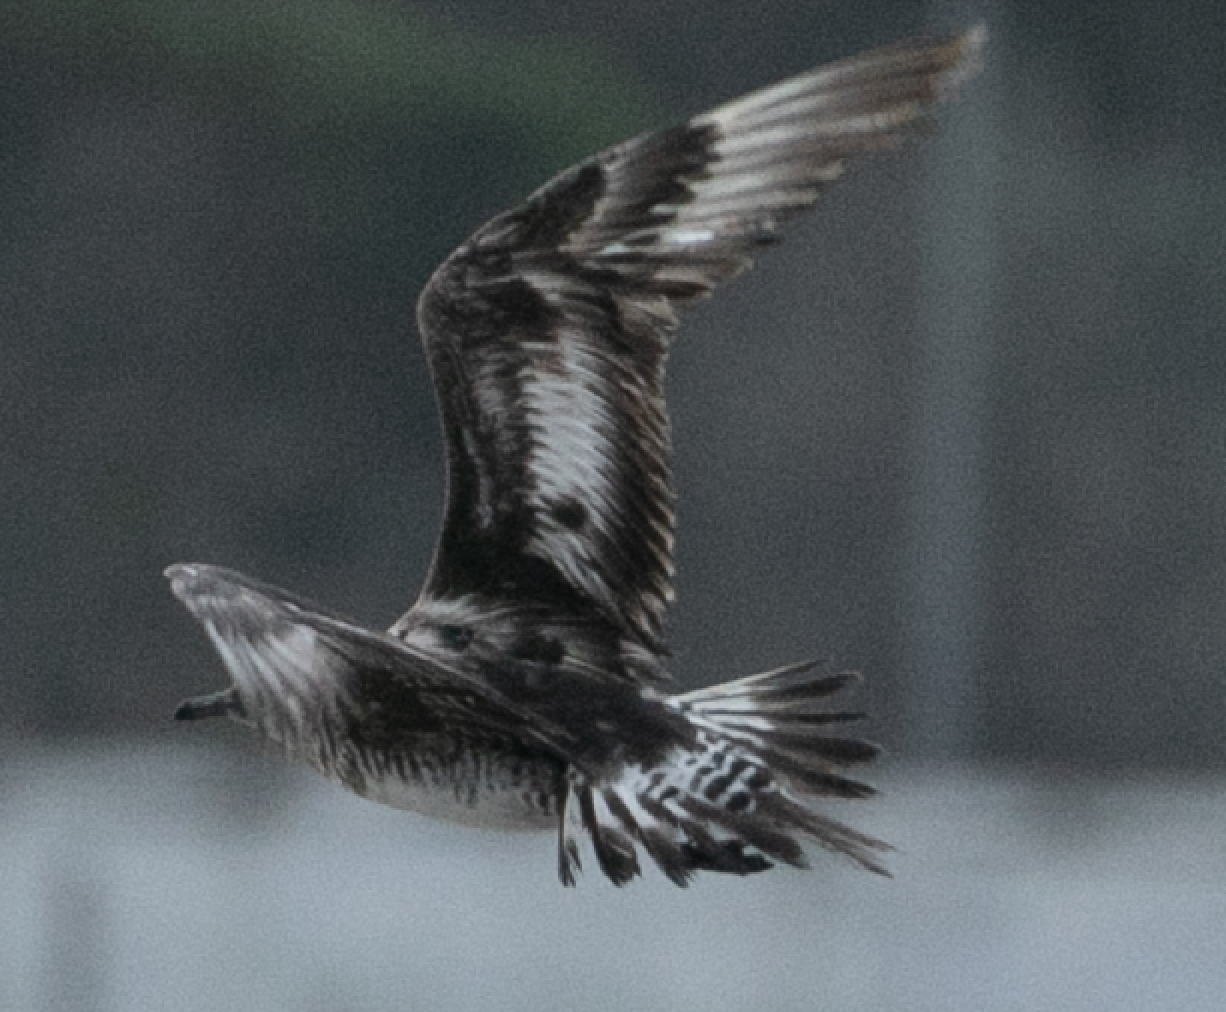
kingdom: Animalia
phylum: Chordata
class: Aves
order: Charadriiformes
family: Stercorariidae
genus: Stercorarius
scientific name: Stercorarius pomarinus
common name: Pomarine jaeger
